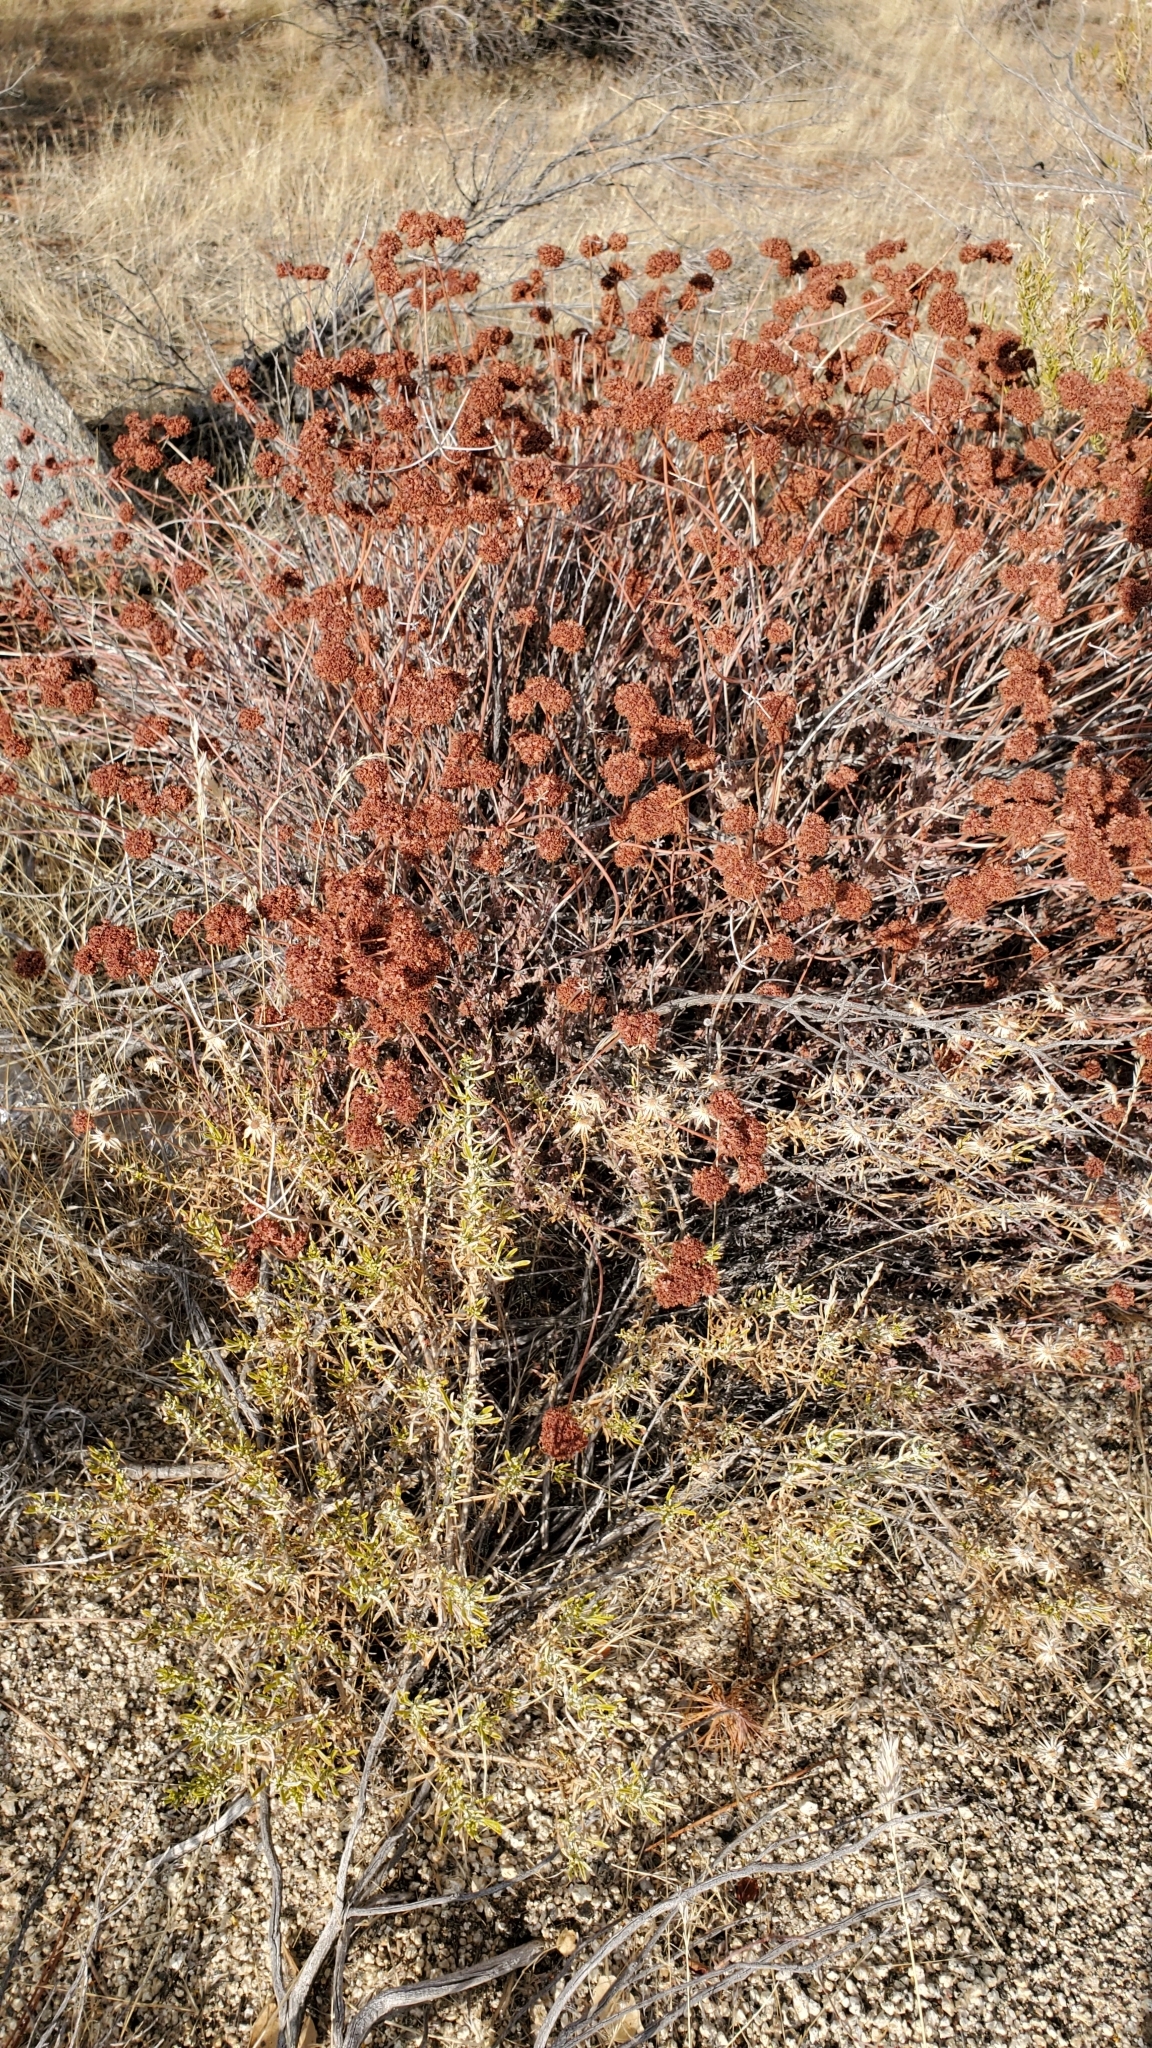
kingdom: Plantae
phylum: Tracheophyta
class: Magnoliopsida
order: Caryophyllales
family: Polygonaceae
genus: Eriogonum
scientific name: Eriogonum fasciculatum
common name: California wild buckwheat
